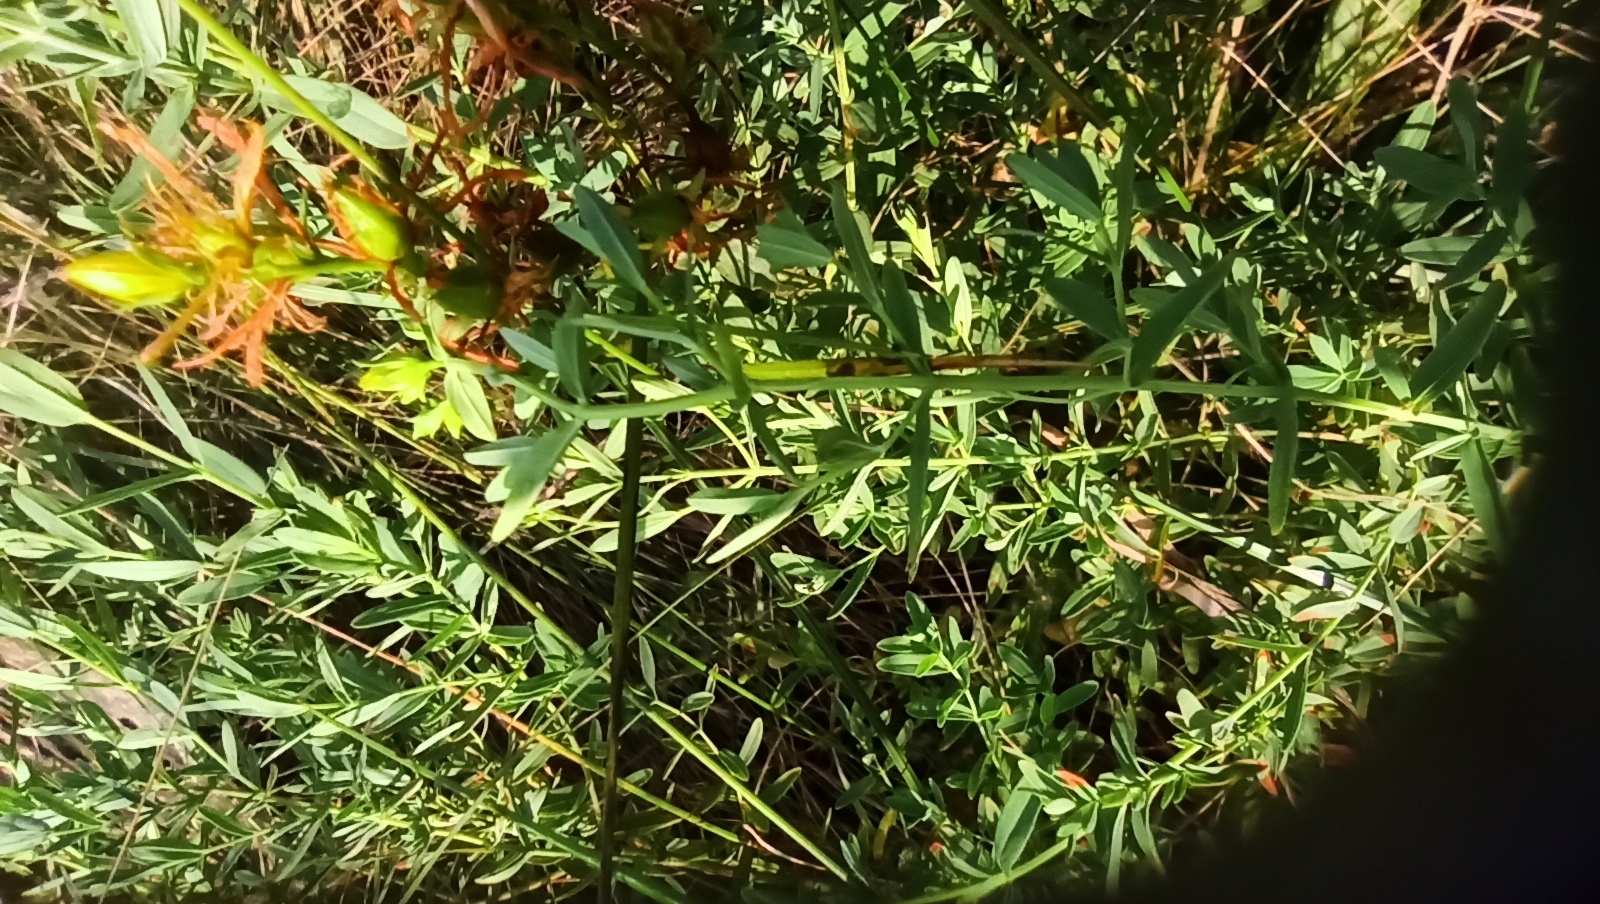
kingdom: Plantae
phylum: Tracheophyta
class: Magnoliopsida
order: Malpighiales
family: Hypericaceae
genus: Hypericum
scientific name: Hypericum perforatum
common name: Common st. johnswort
